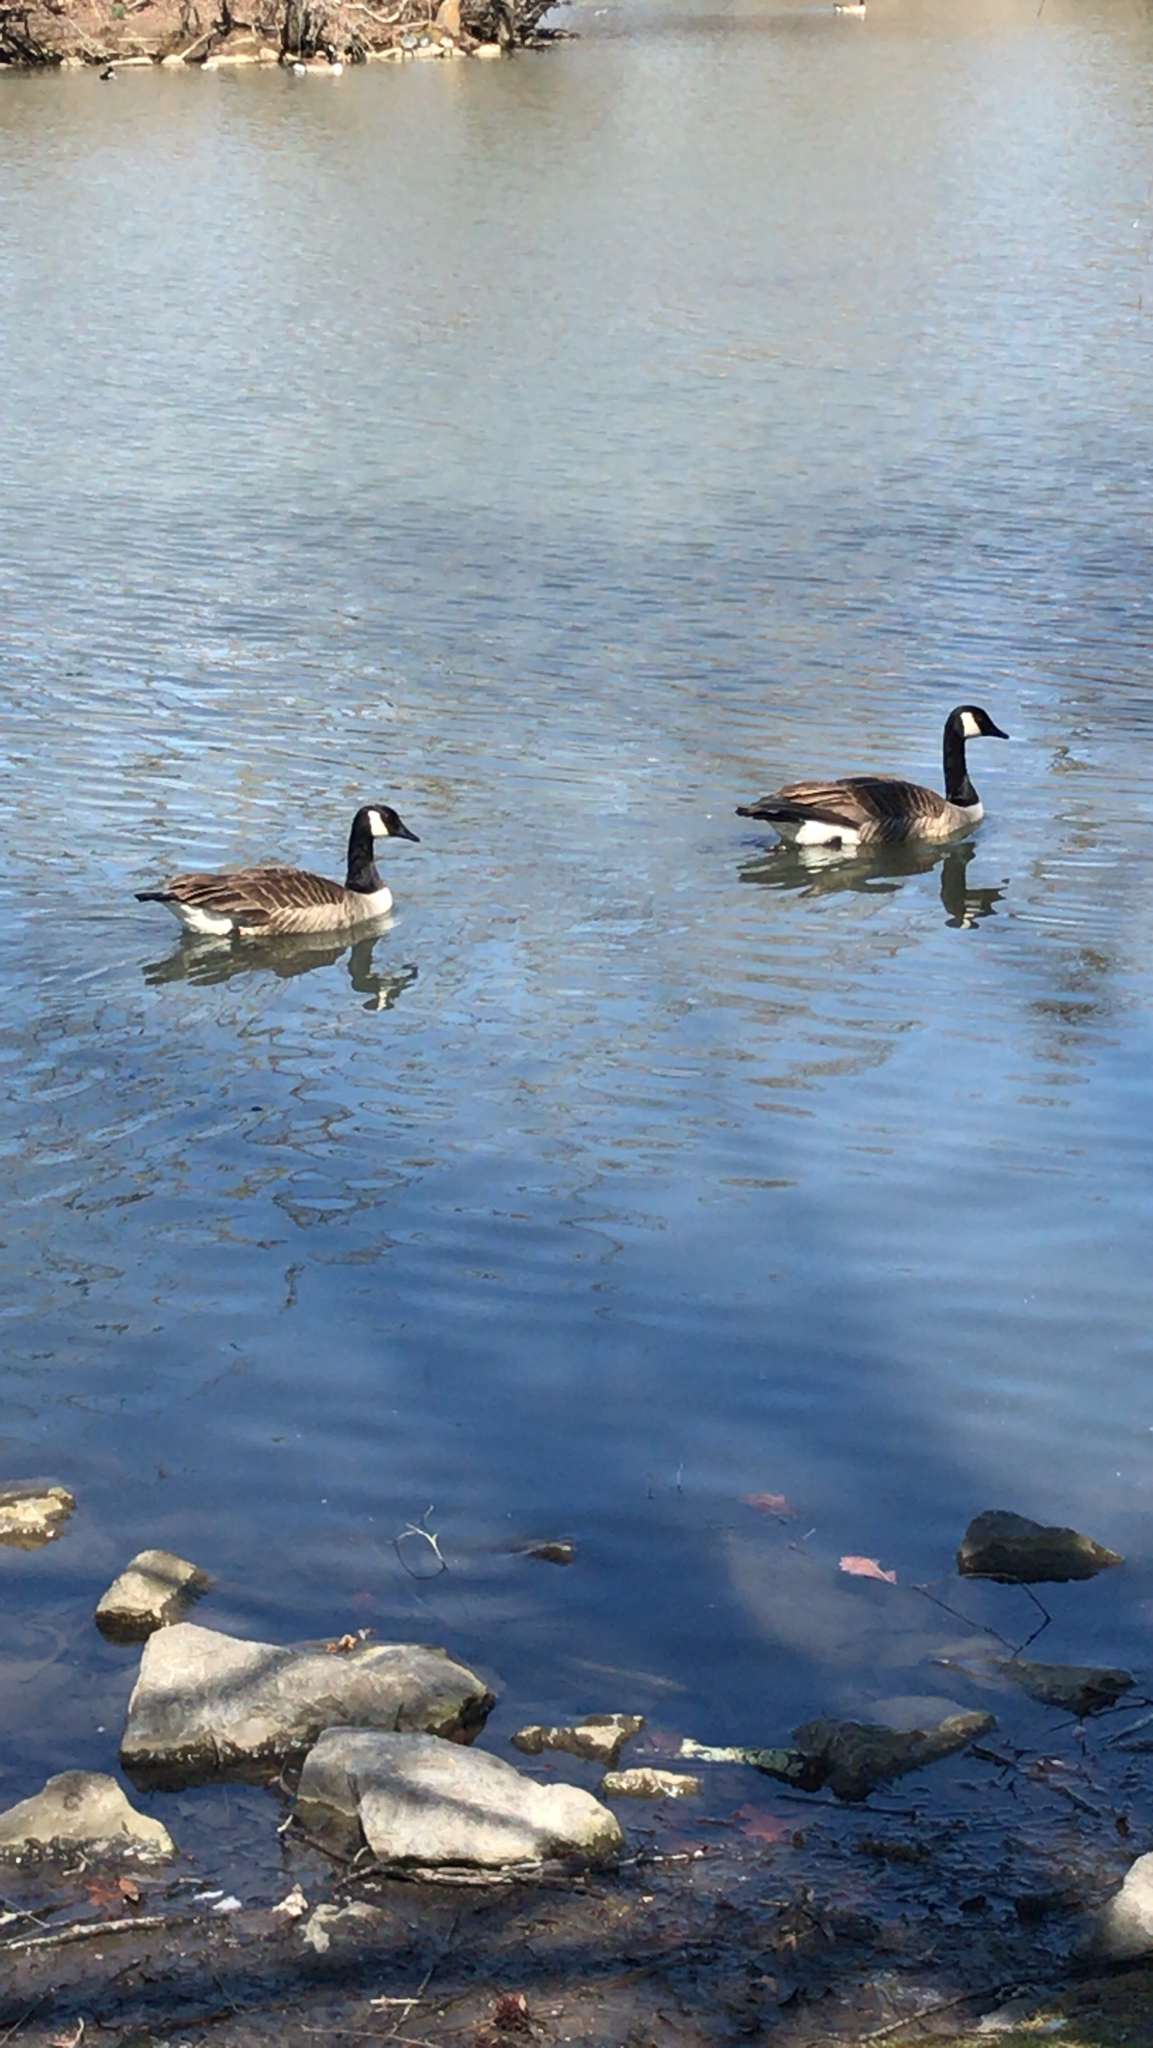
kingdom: Animalia
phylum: Chordata
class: Aves
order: Anseriformes
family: Anatidae
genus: Branta
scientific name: Branta canadensis
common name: Canada goose
